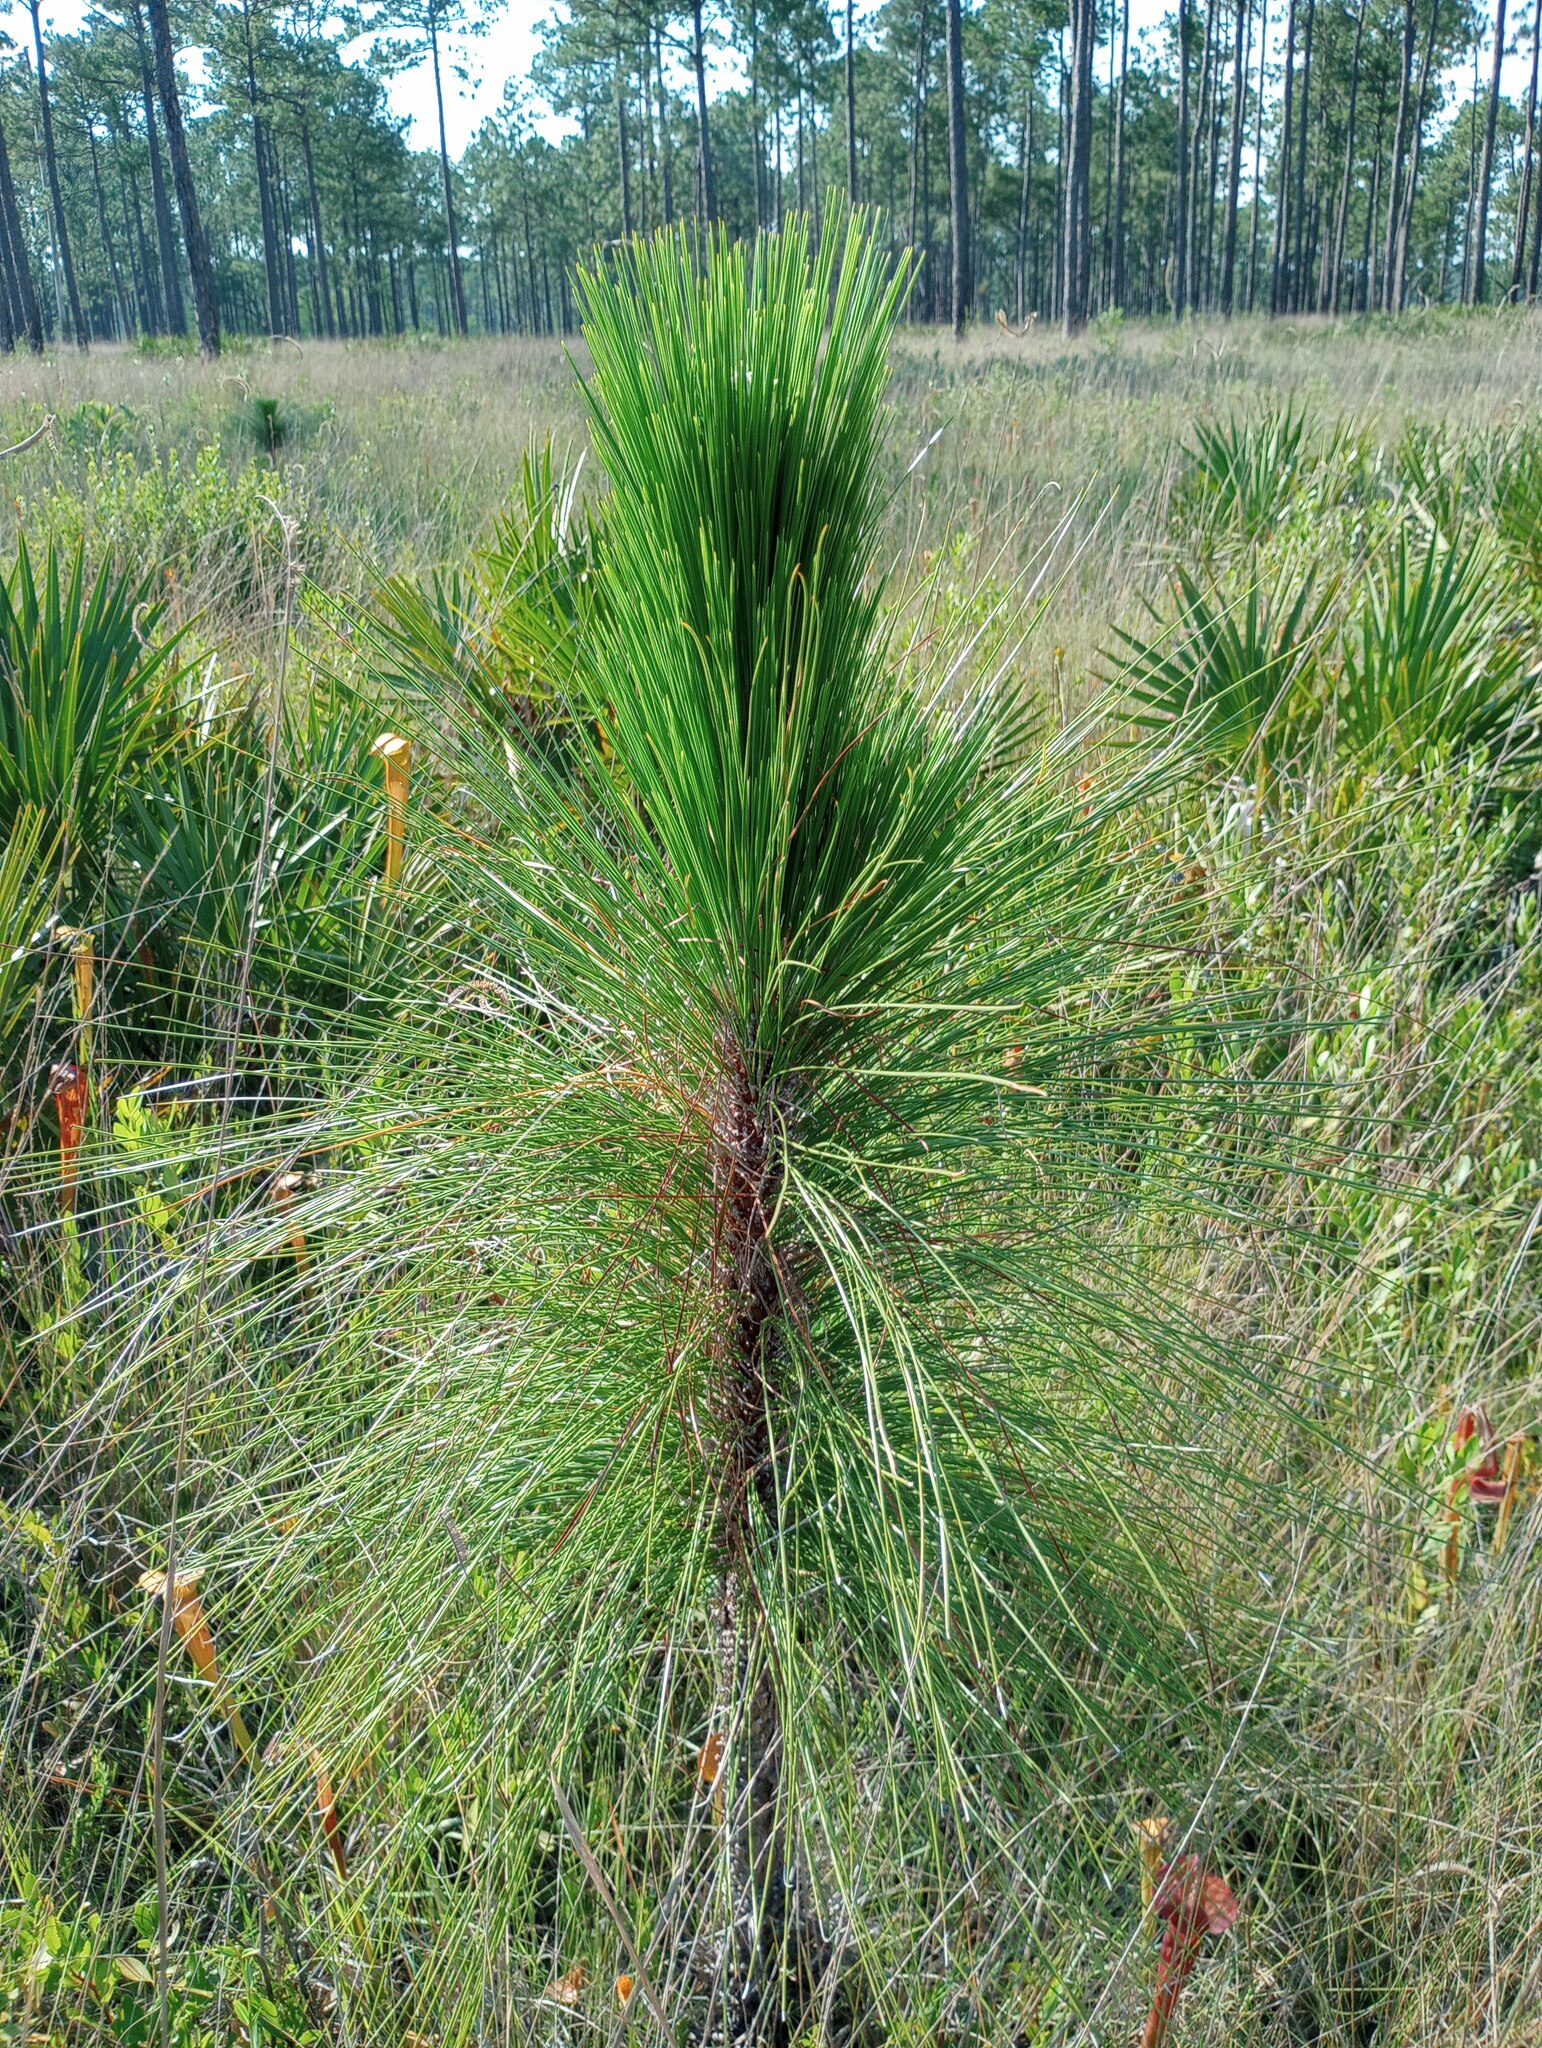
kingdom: Plantae
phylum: Tracheophyta
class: Pinopsida
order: Pinales
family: Pinaceae
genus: Pinus
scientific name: Pinus palustris
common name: Longleaf pine
